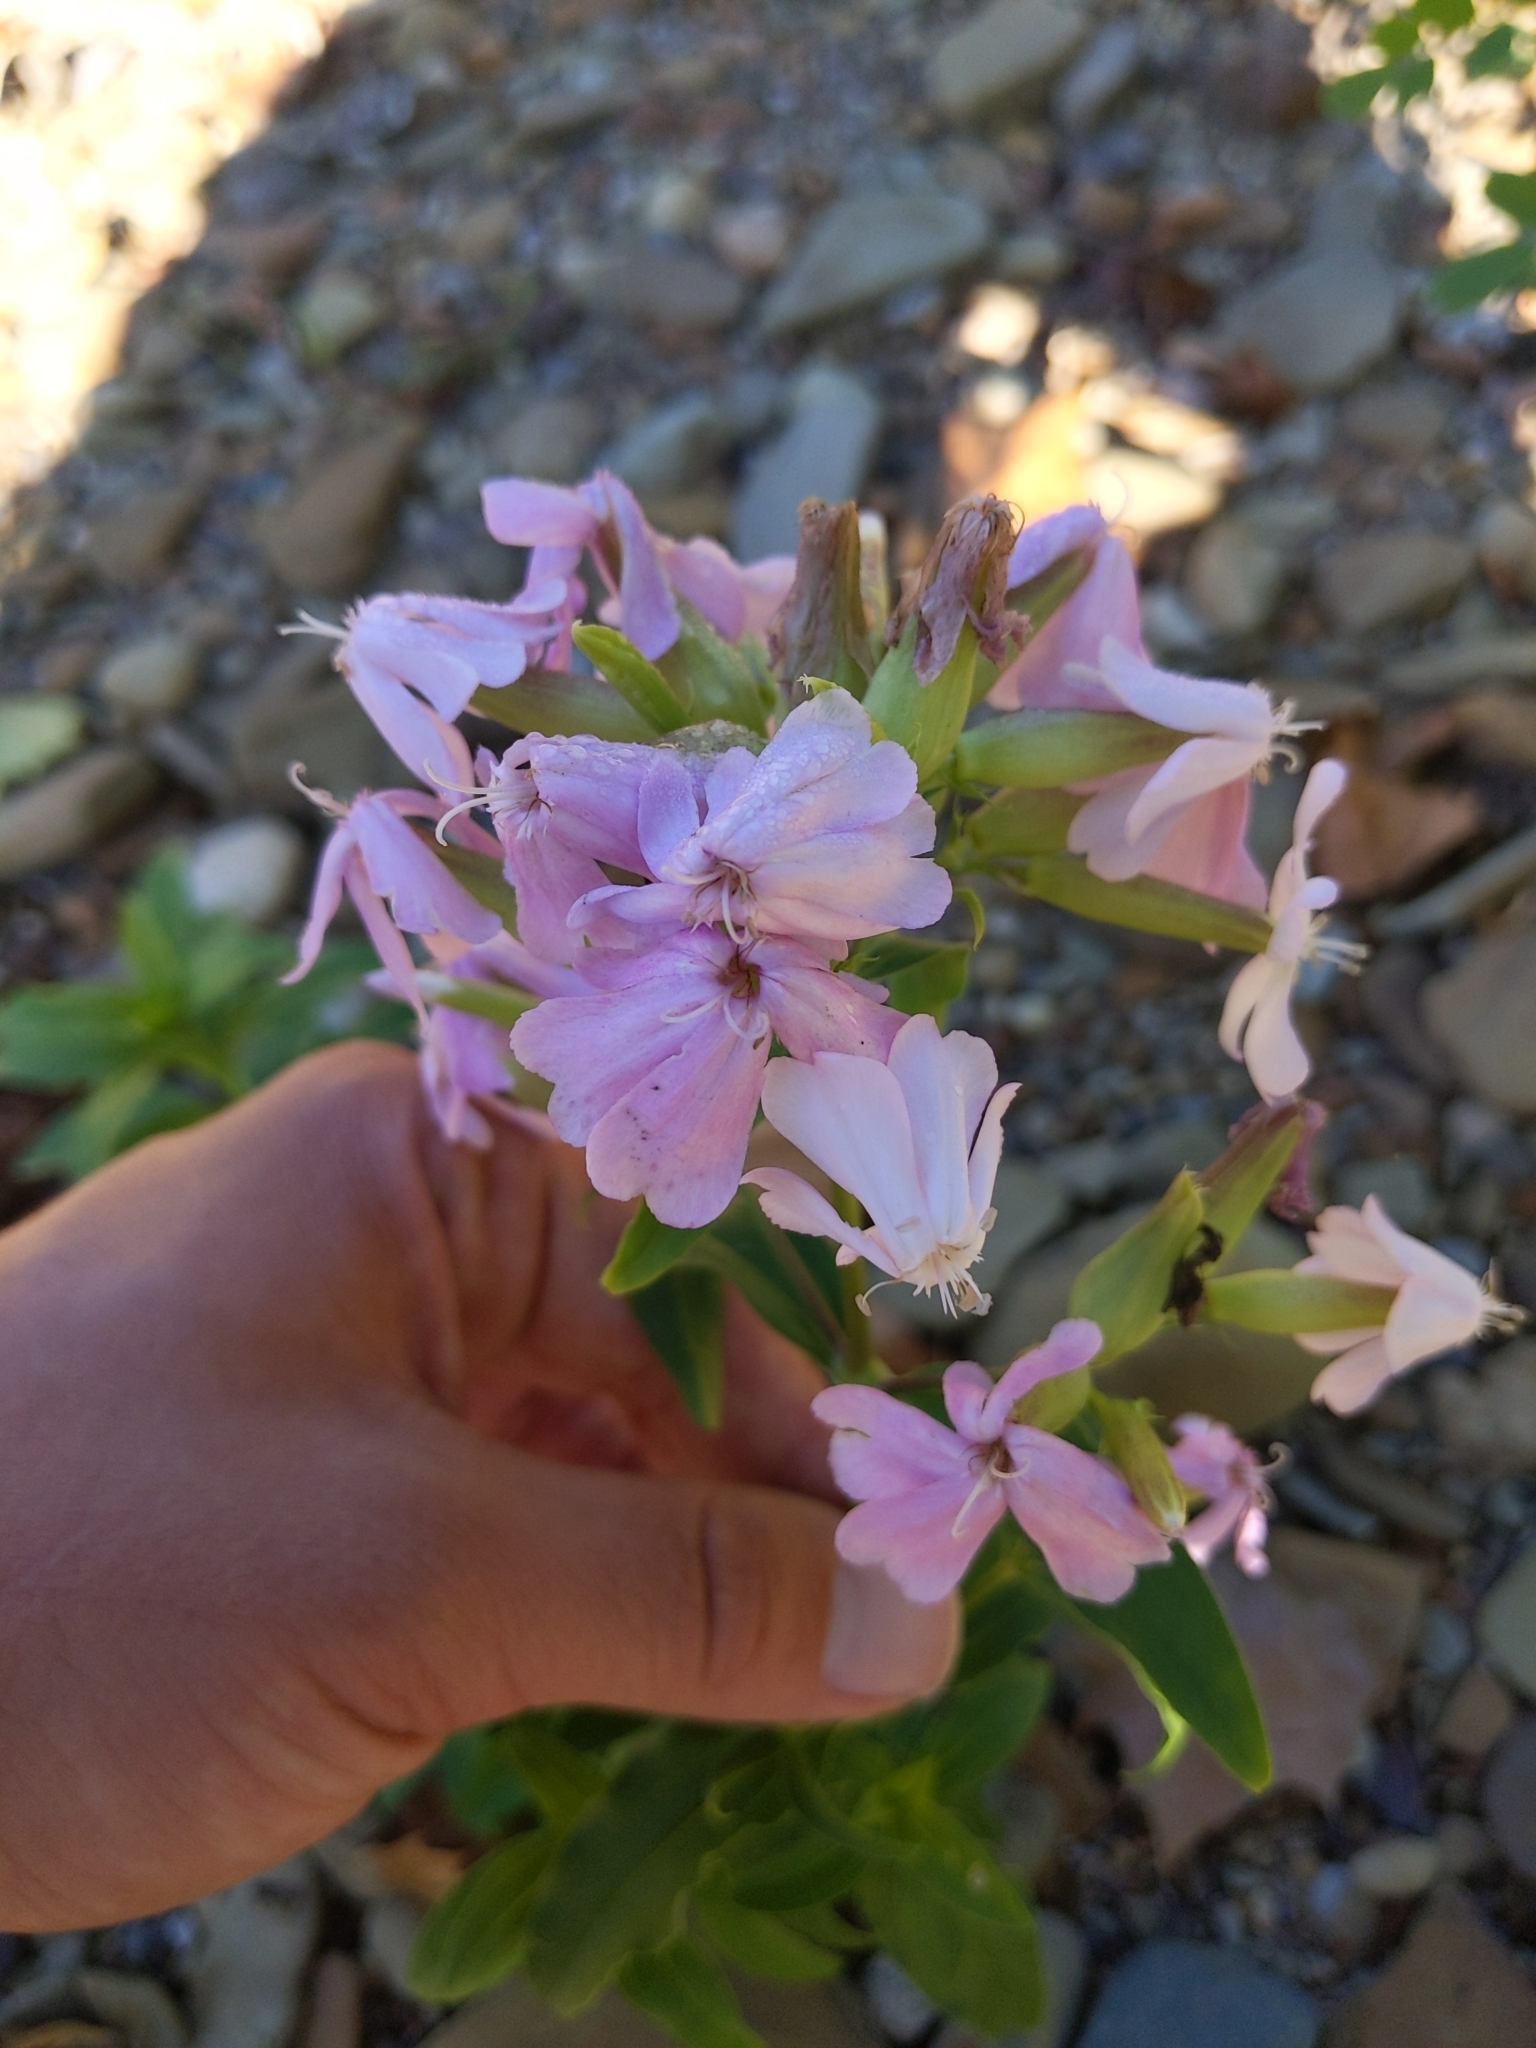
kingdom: Plantae
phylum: Tracheophyta
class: Magnoliopsida
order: Caryophyllales
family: Caryophyllaceae
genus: Saponaria
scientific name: Saponaria officinalis
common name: Soapwort
